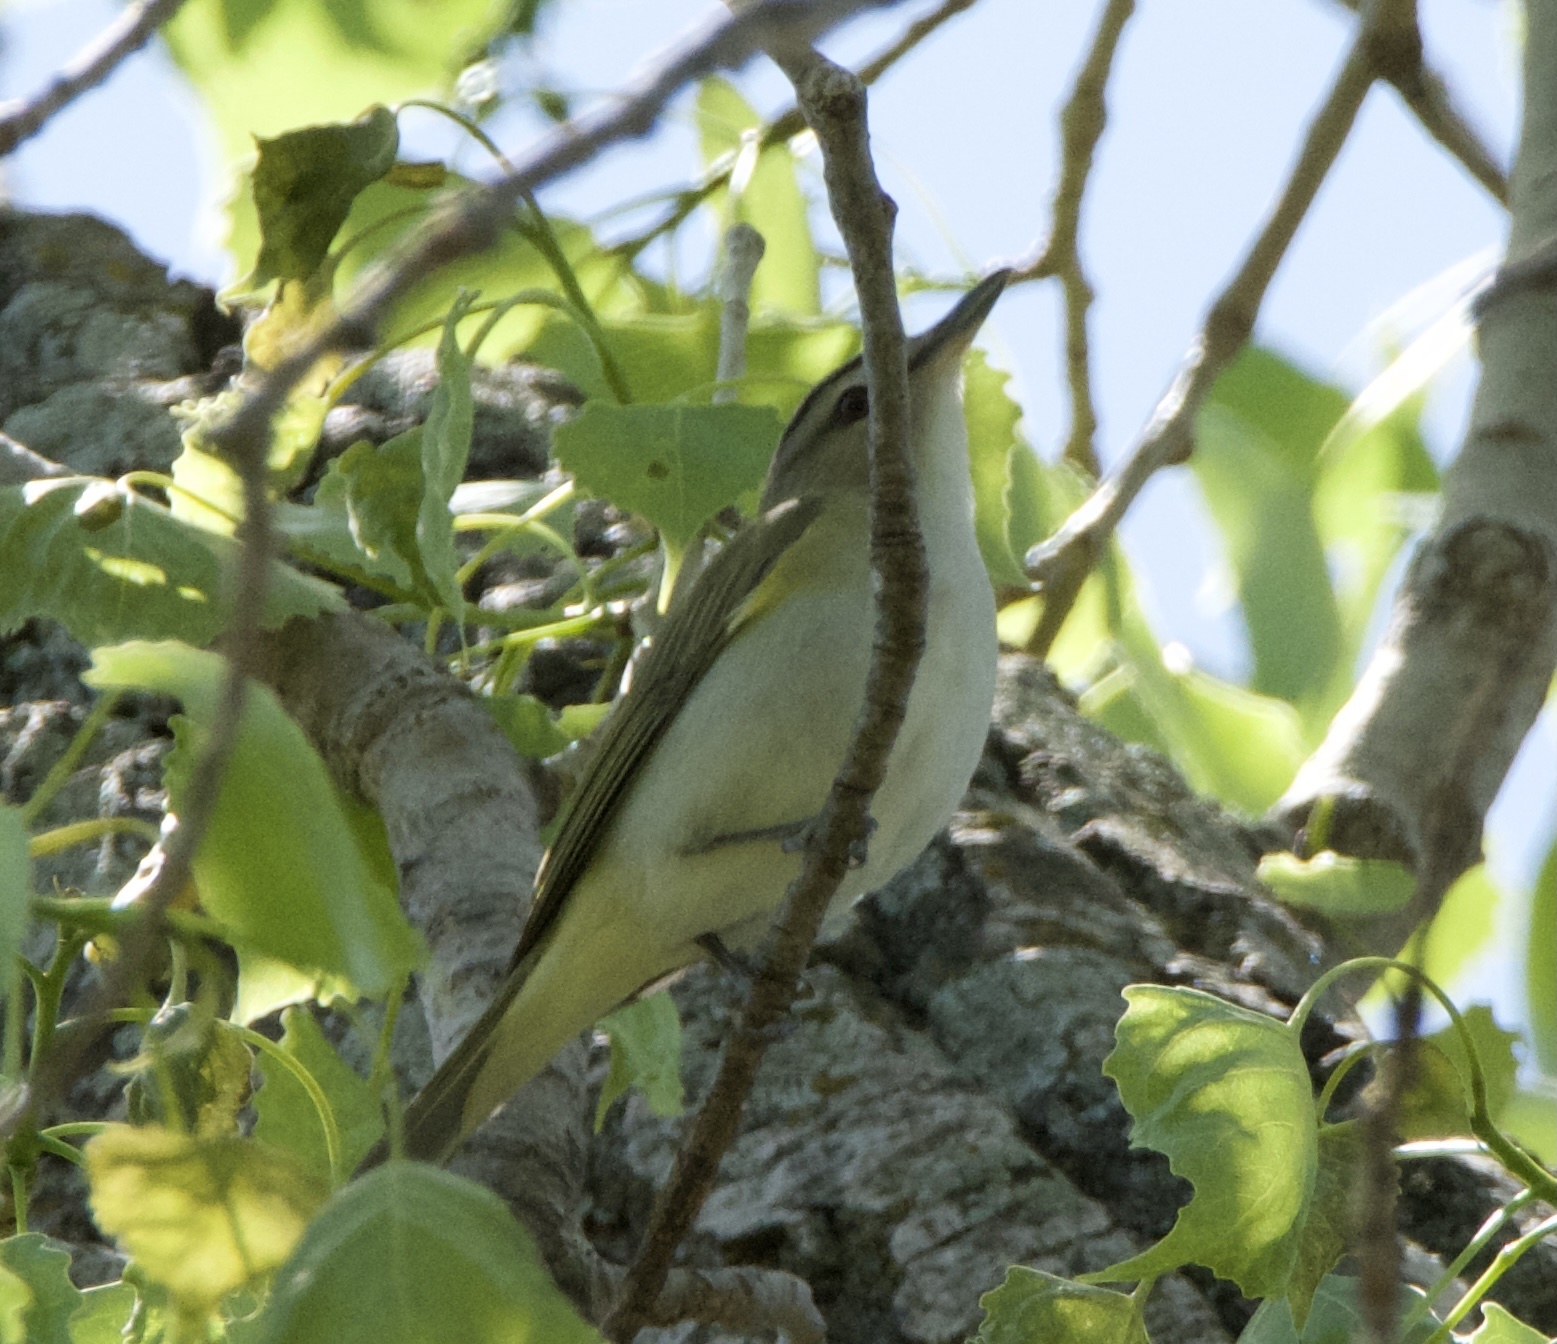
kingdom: Animalia
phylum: Chordata
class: Aves
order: Passeriformes
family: Vireonidae
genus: Vireo
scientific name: Vireo olivaceus
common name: Red-eyed vireo
